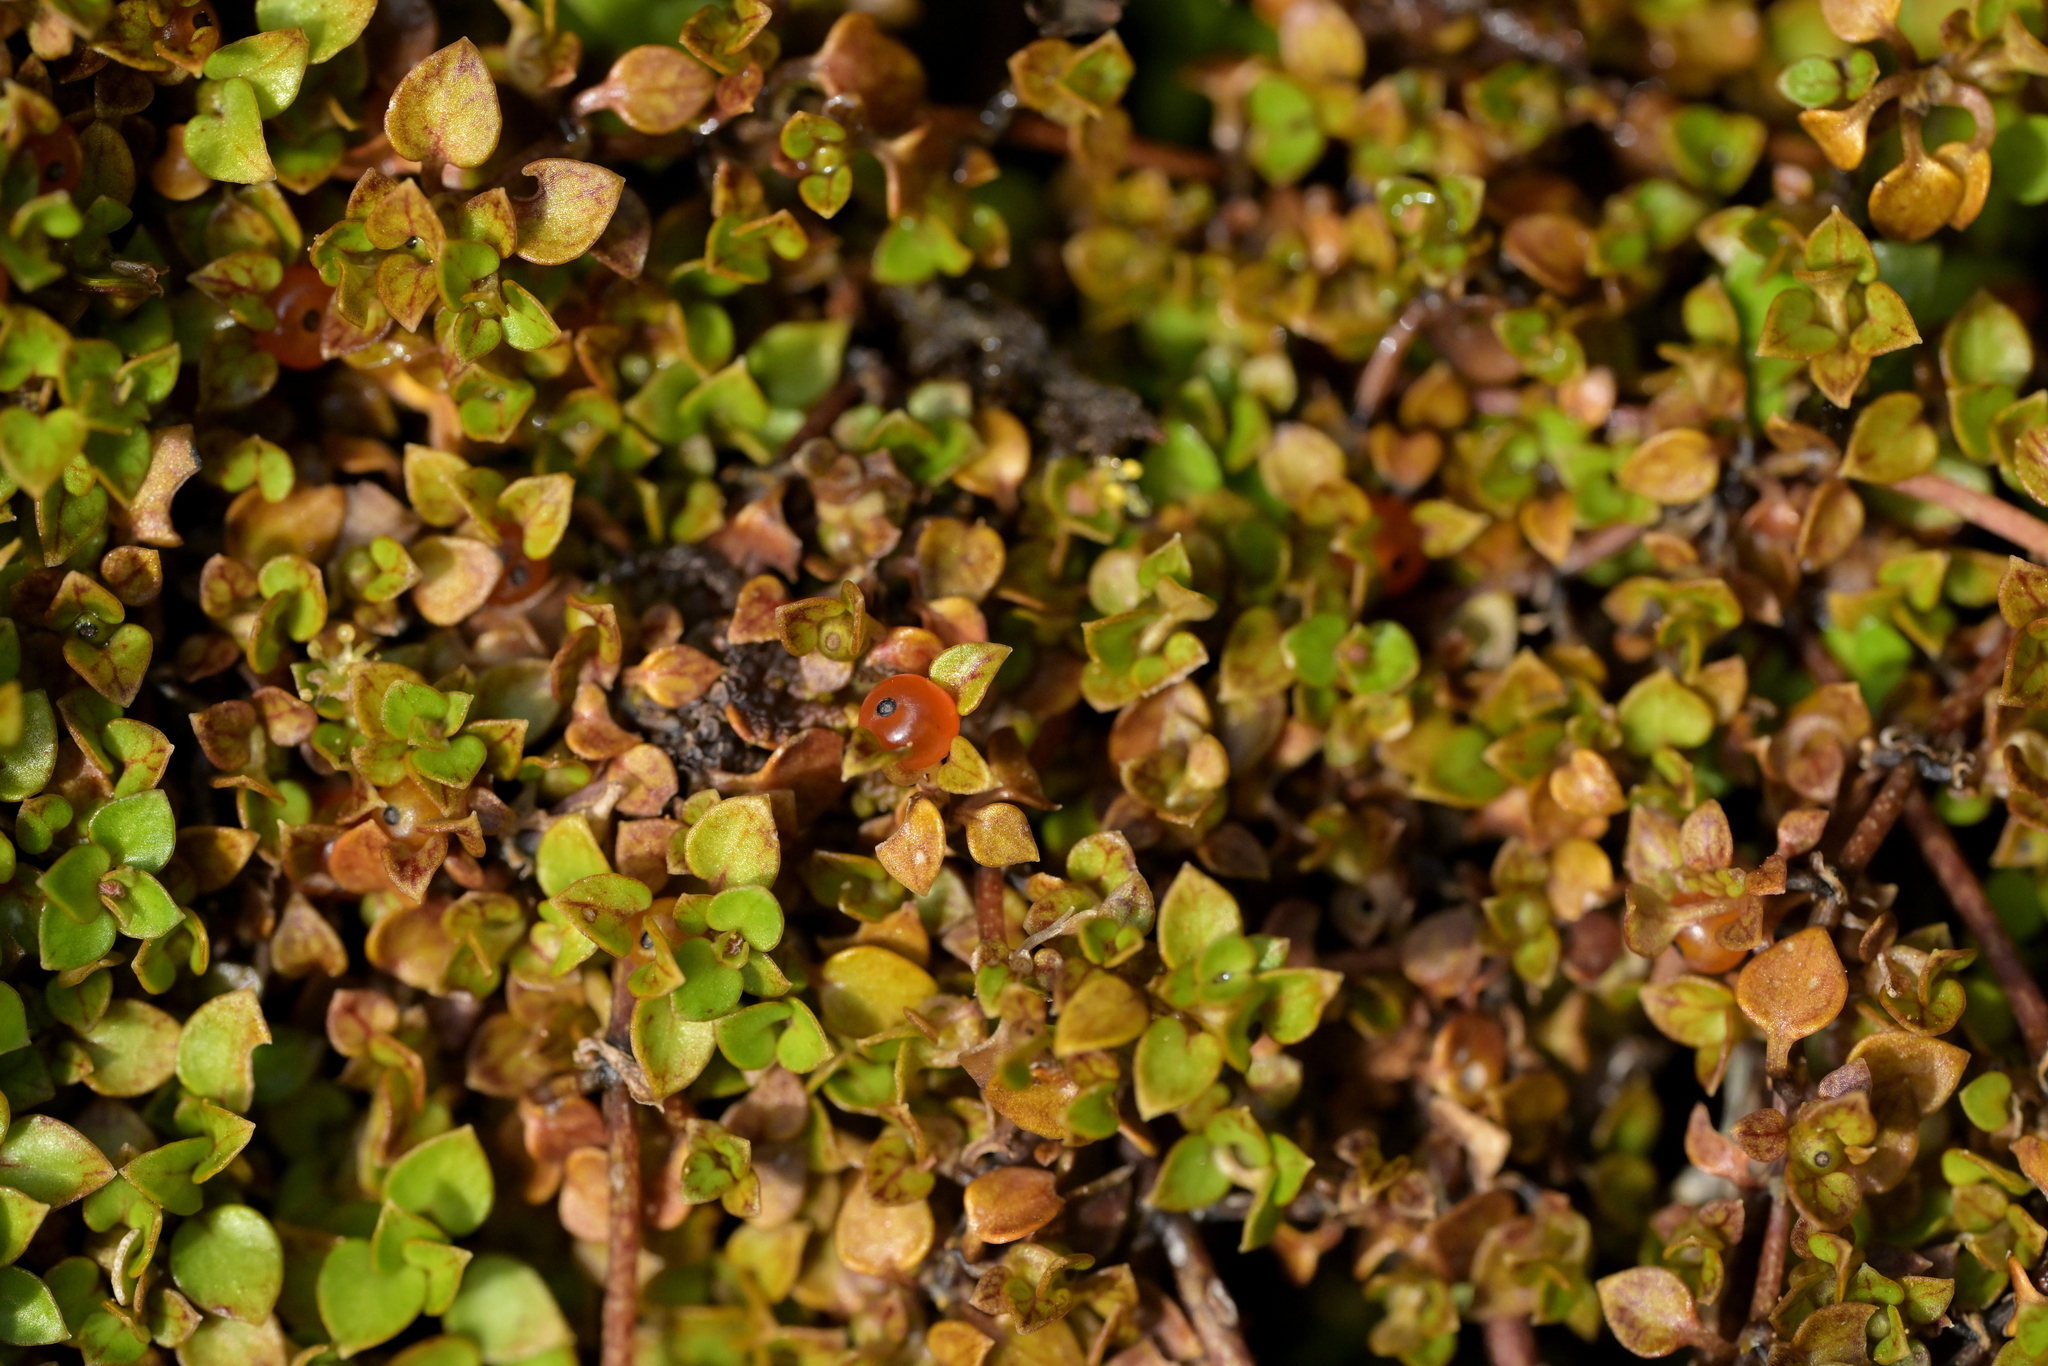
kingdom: Plantae
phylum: Tracheophyta
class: Magnoliopsida
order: Gentianales
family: Rubiaceae
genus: Nertera
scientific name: Nertera granadensis
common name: Beadplant
